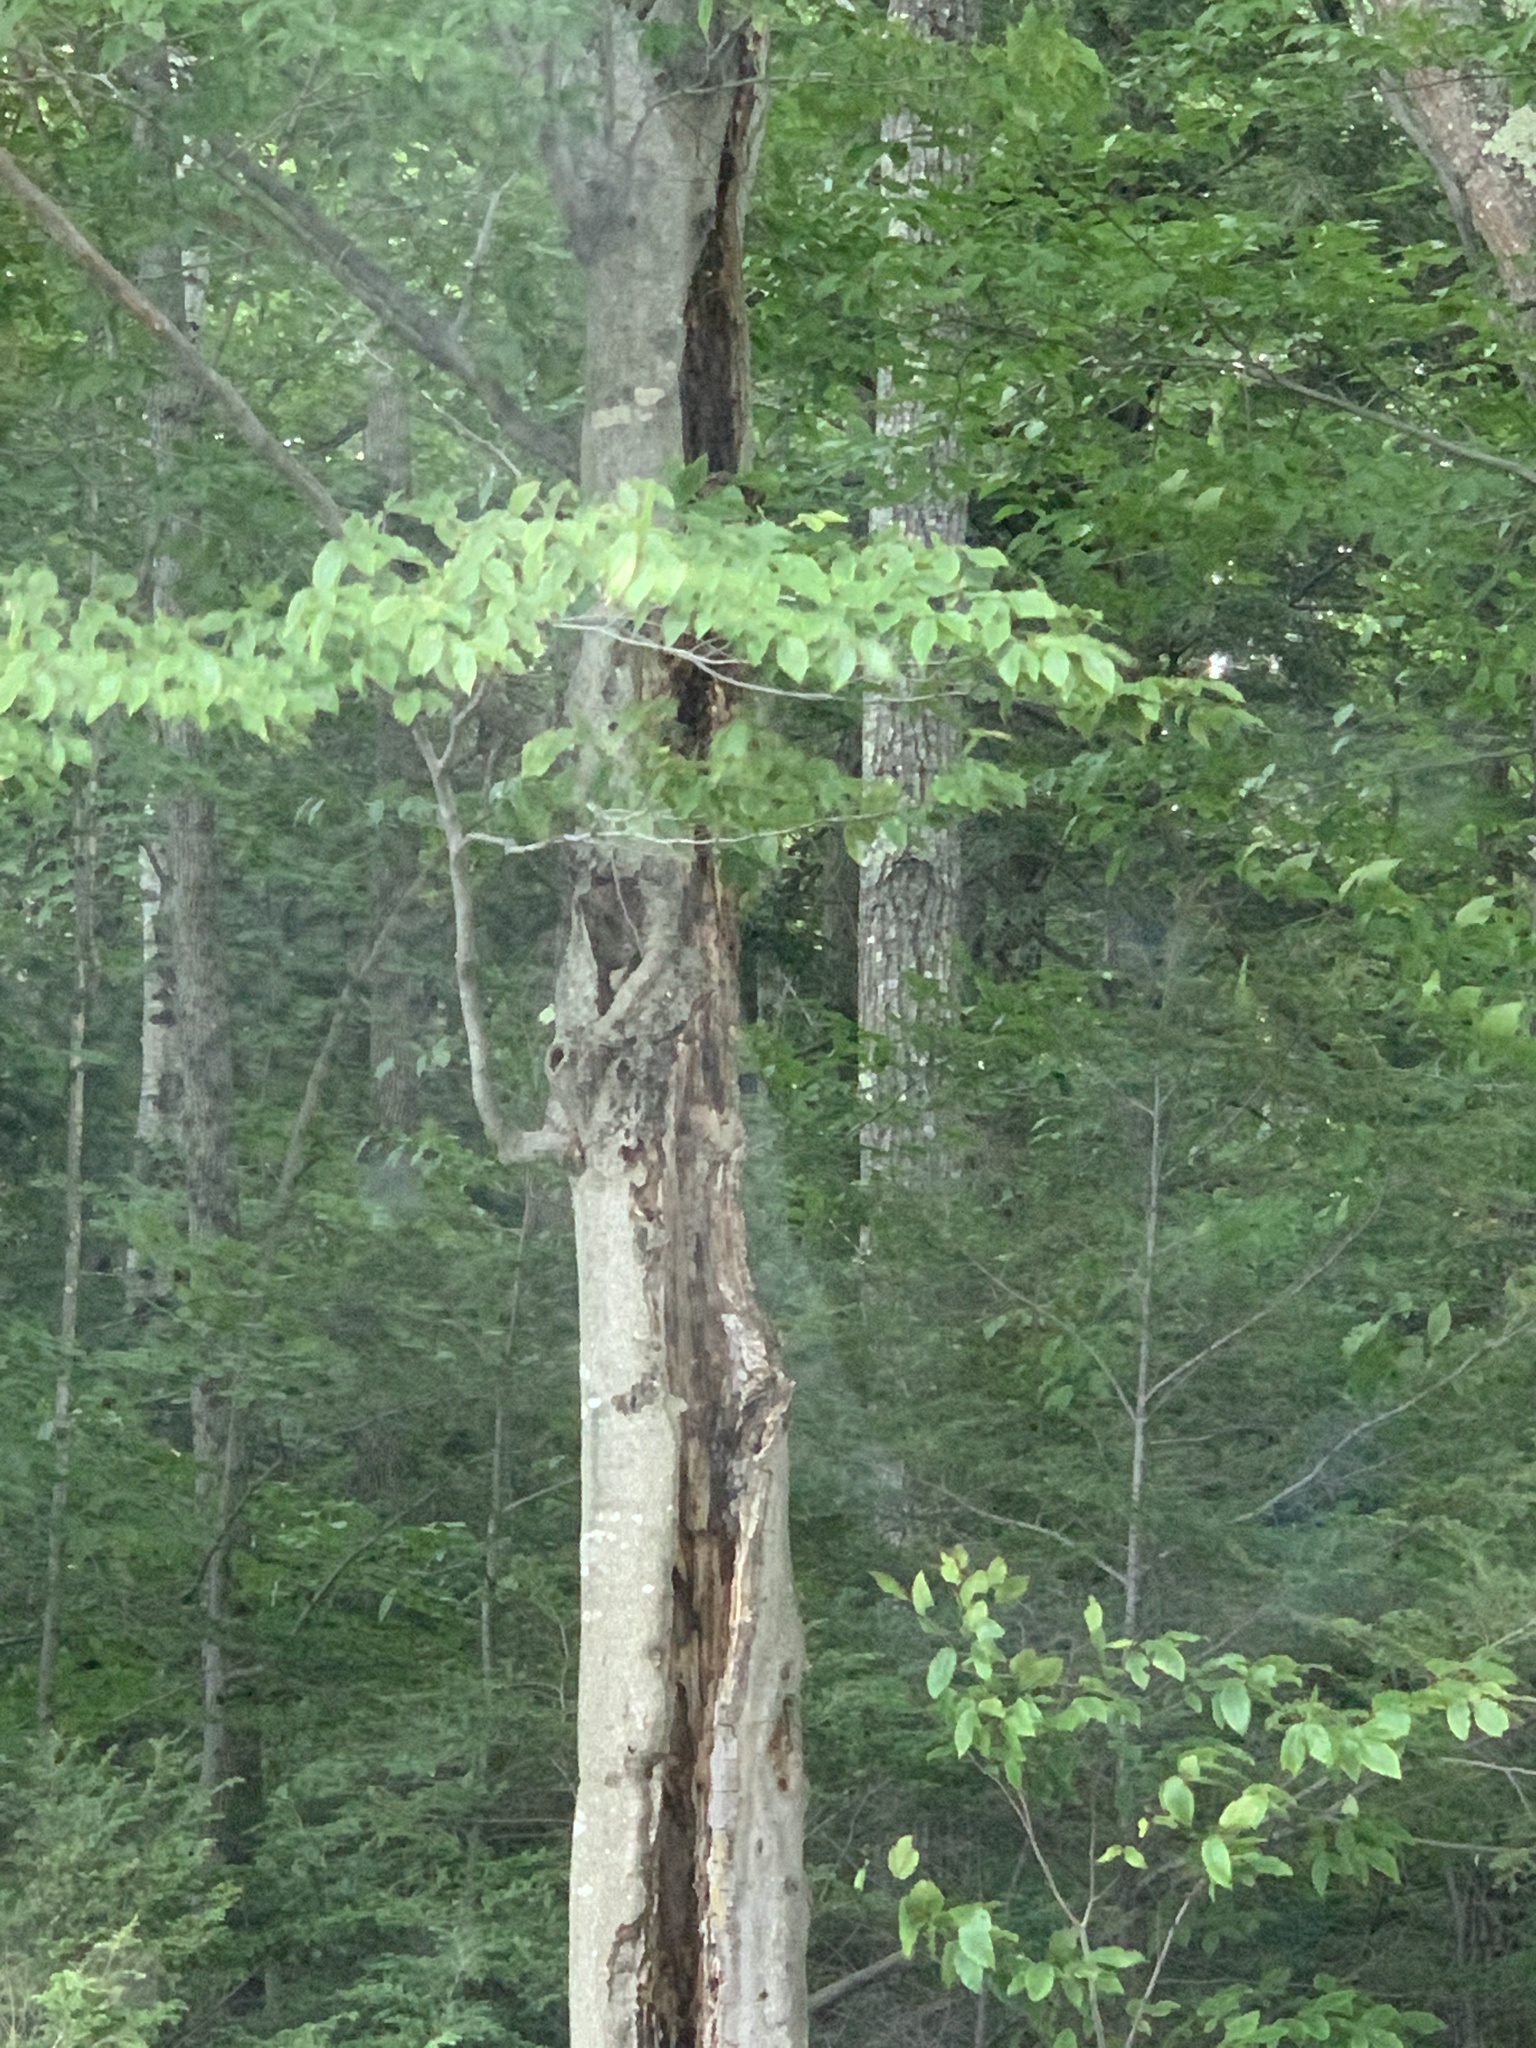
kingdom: Plantae
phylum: Tracheophyta
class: Magnoliopsida
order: Fagales
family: Fagaceae
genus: Fagus
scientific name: Fagus grandifolia
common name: American beech
